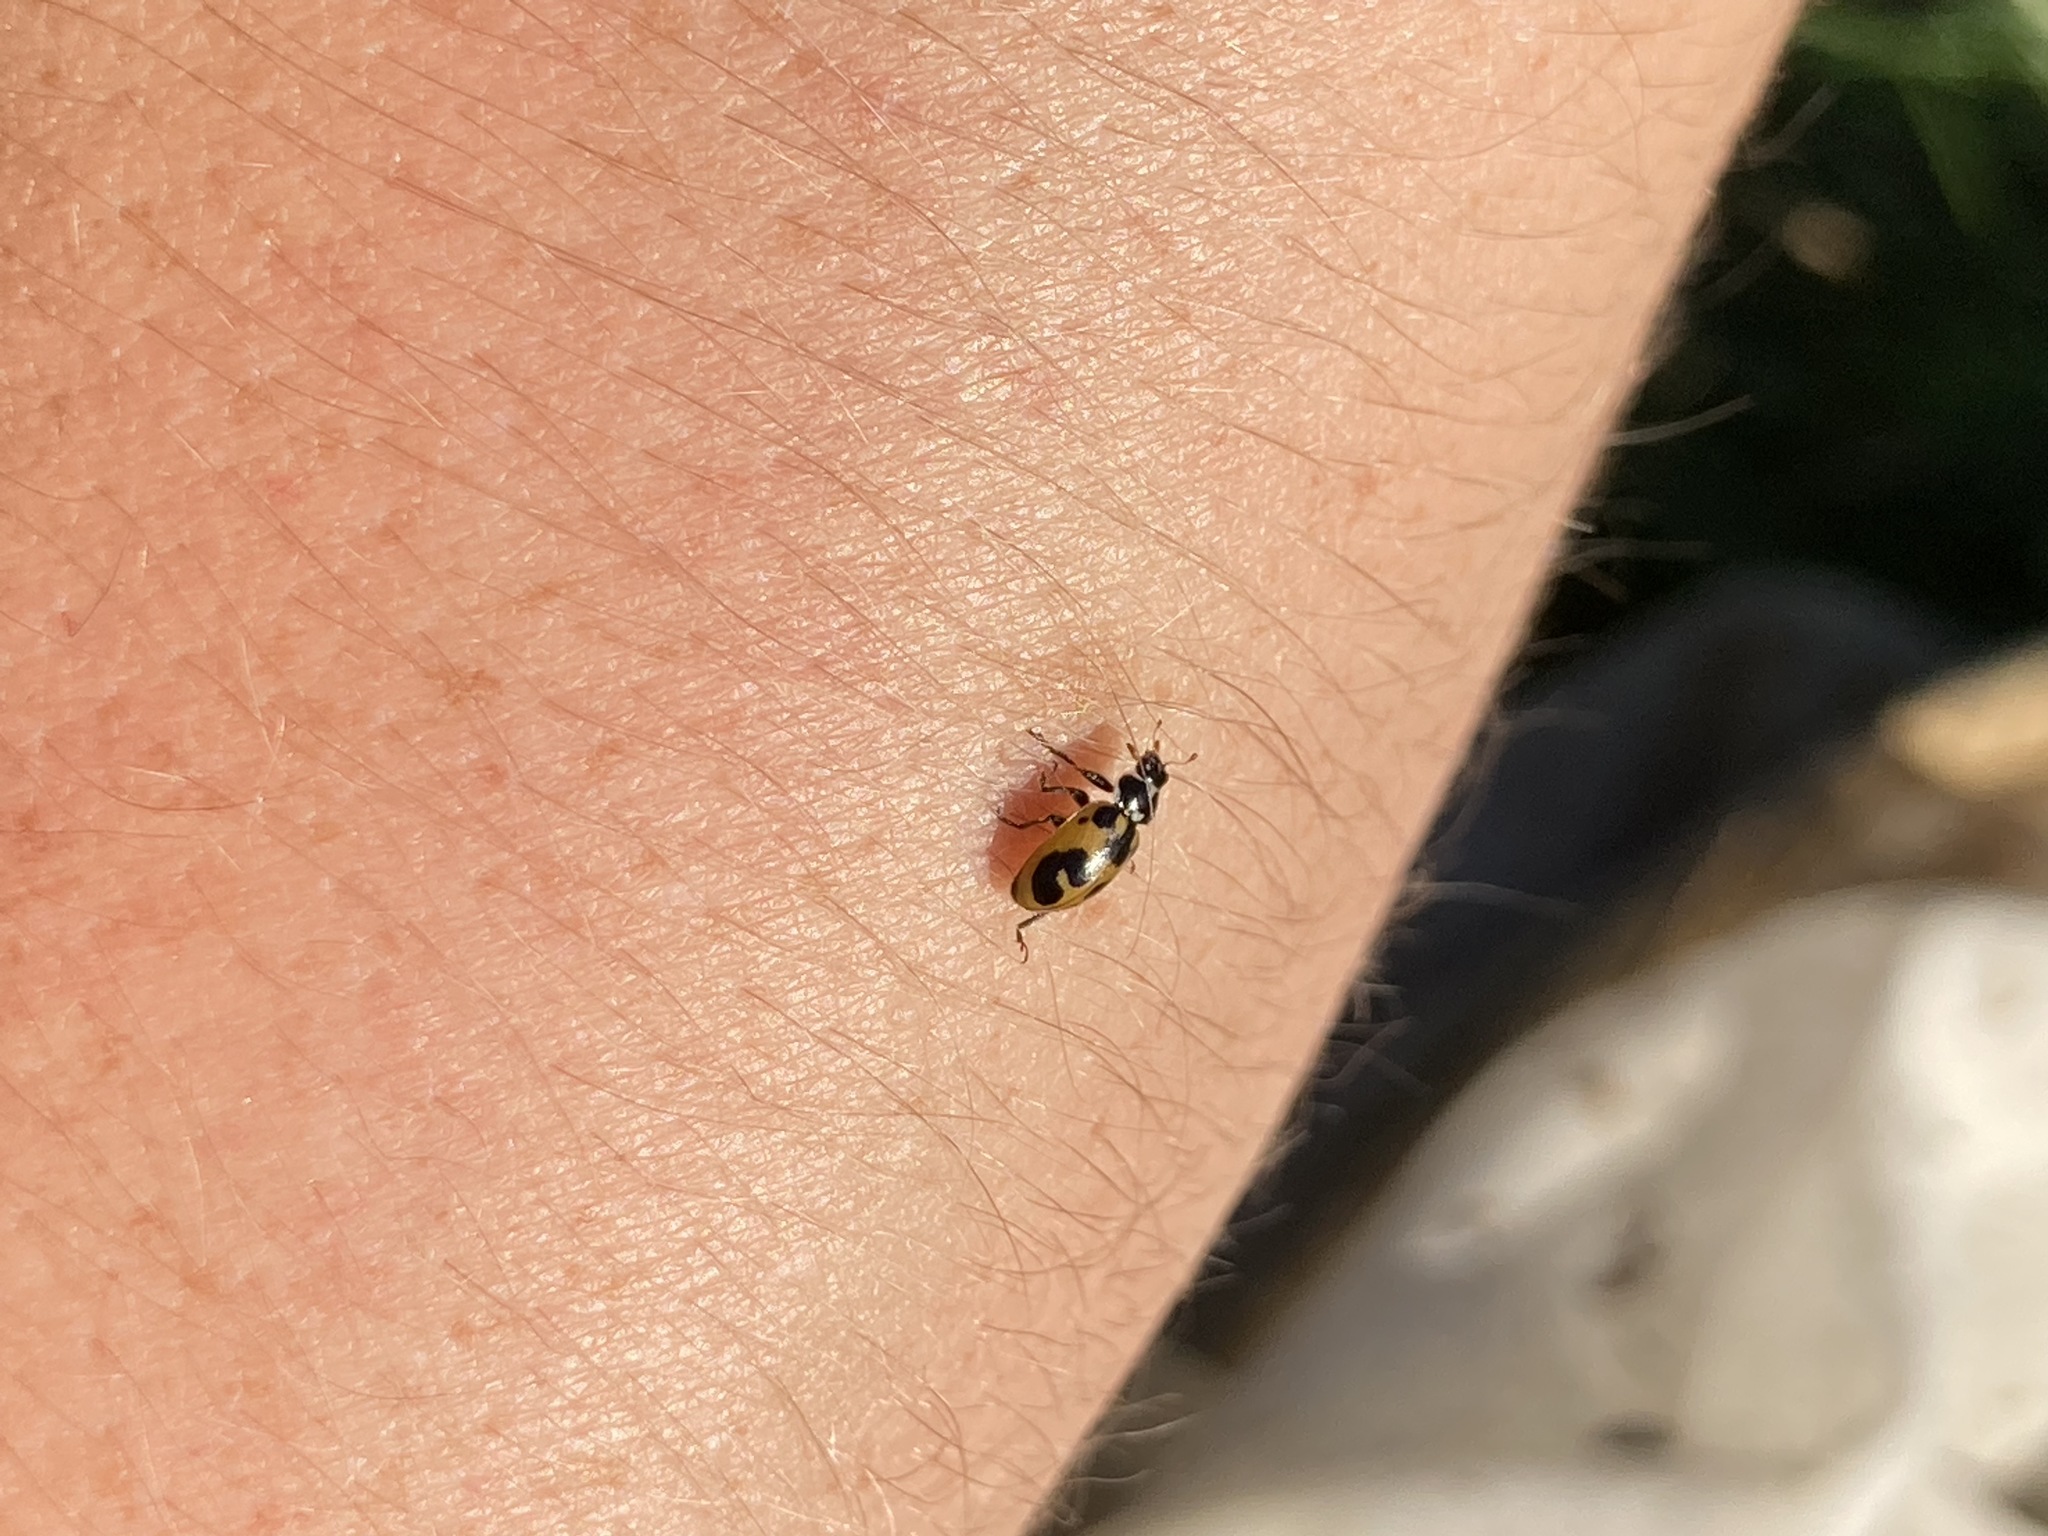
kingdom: Animalia
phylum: Arthropoda
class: Insecta
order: Coleoptera
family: Coccinellidae
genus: Hippodamia
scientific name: Hippodamia parenthesis
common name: Parenthesis lady beetle
